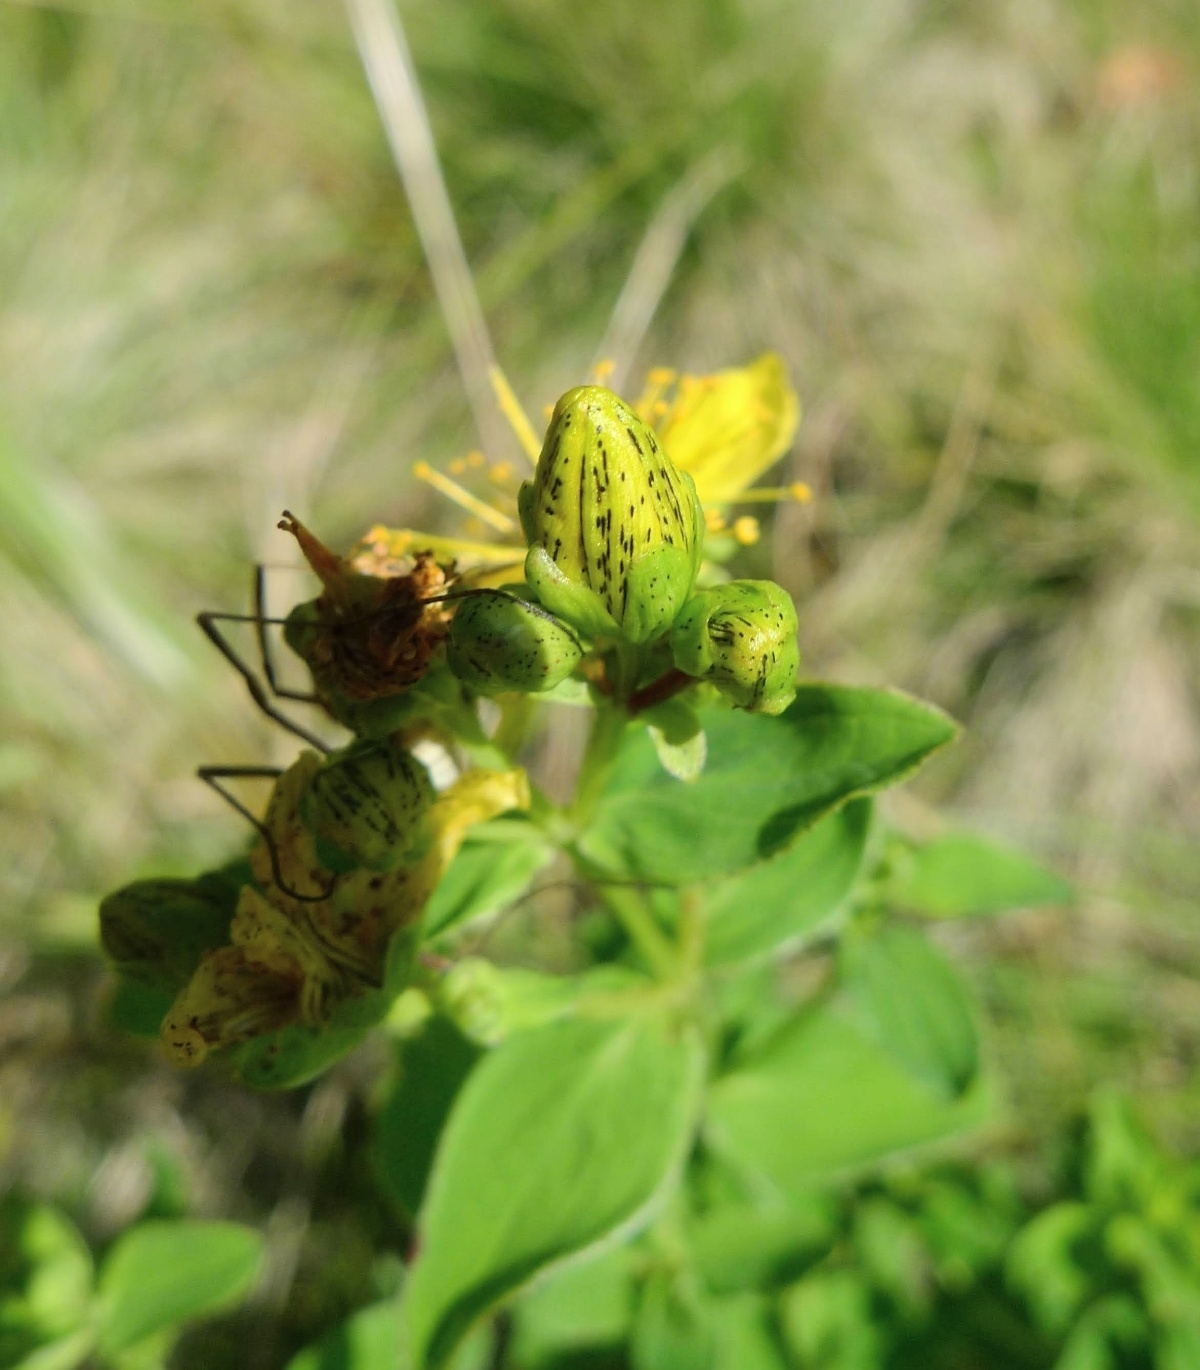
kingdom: Plantae
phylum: Tracheophyta
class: Magnoliopsida
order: Malpighiales
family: Hypericaceae
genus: Hypericum
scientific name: Hypericum maculatum
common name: Imperforate st. john's-wort
